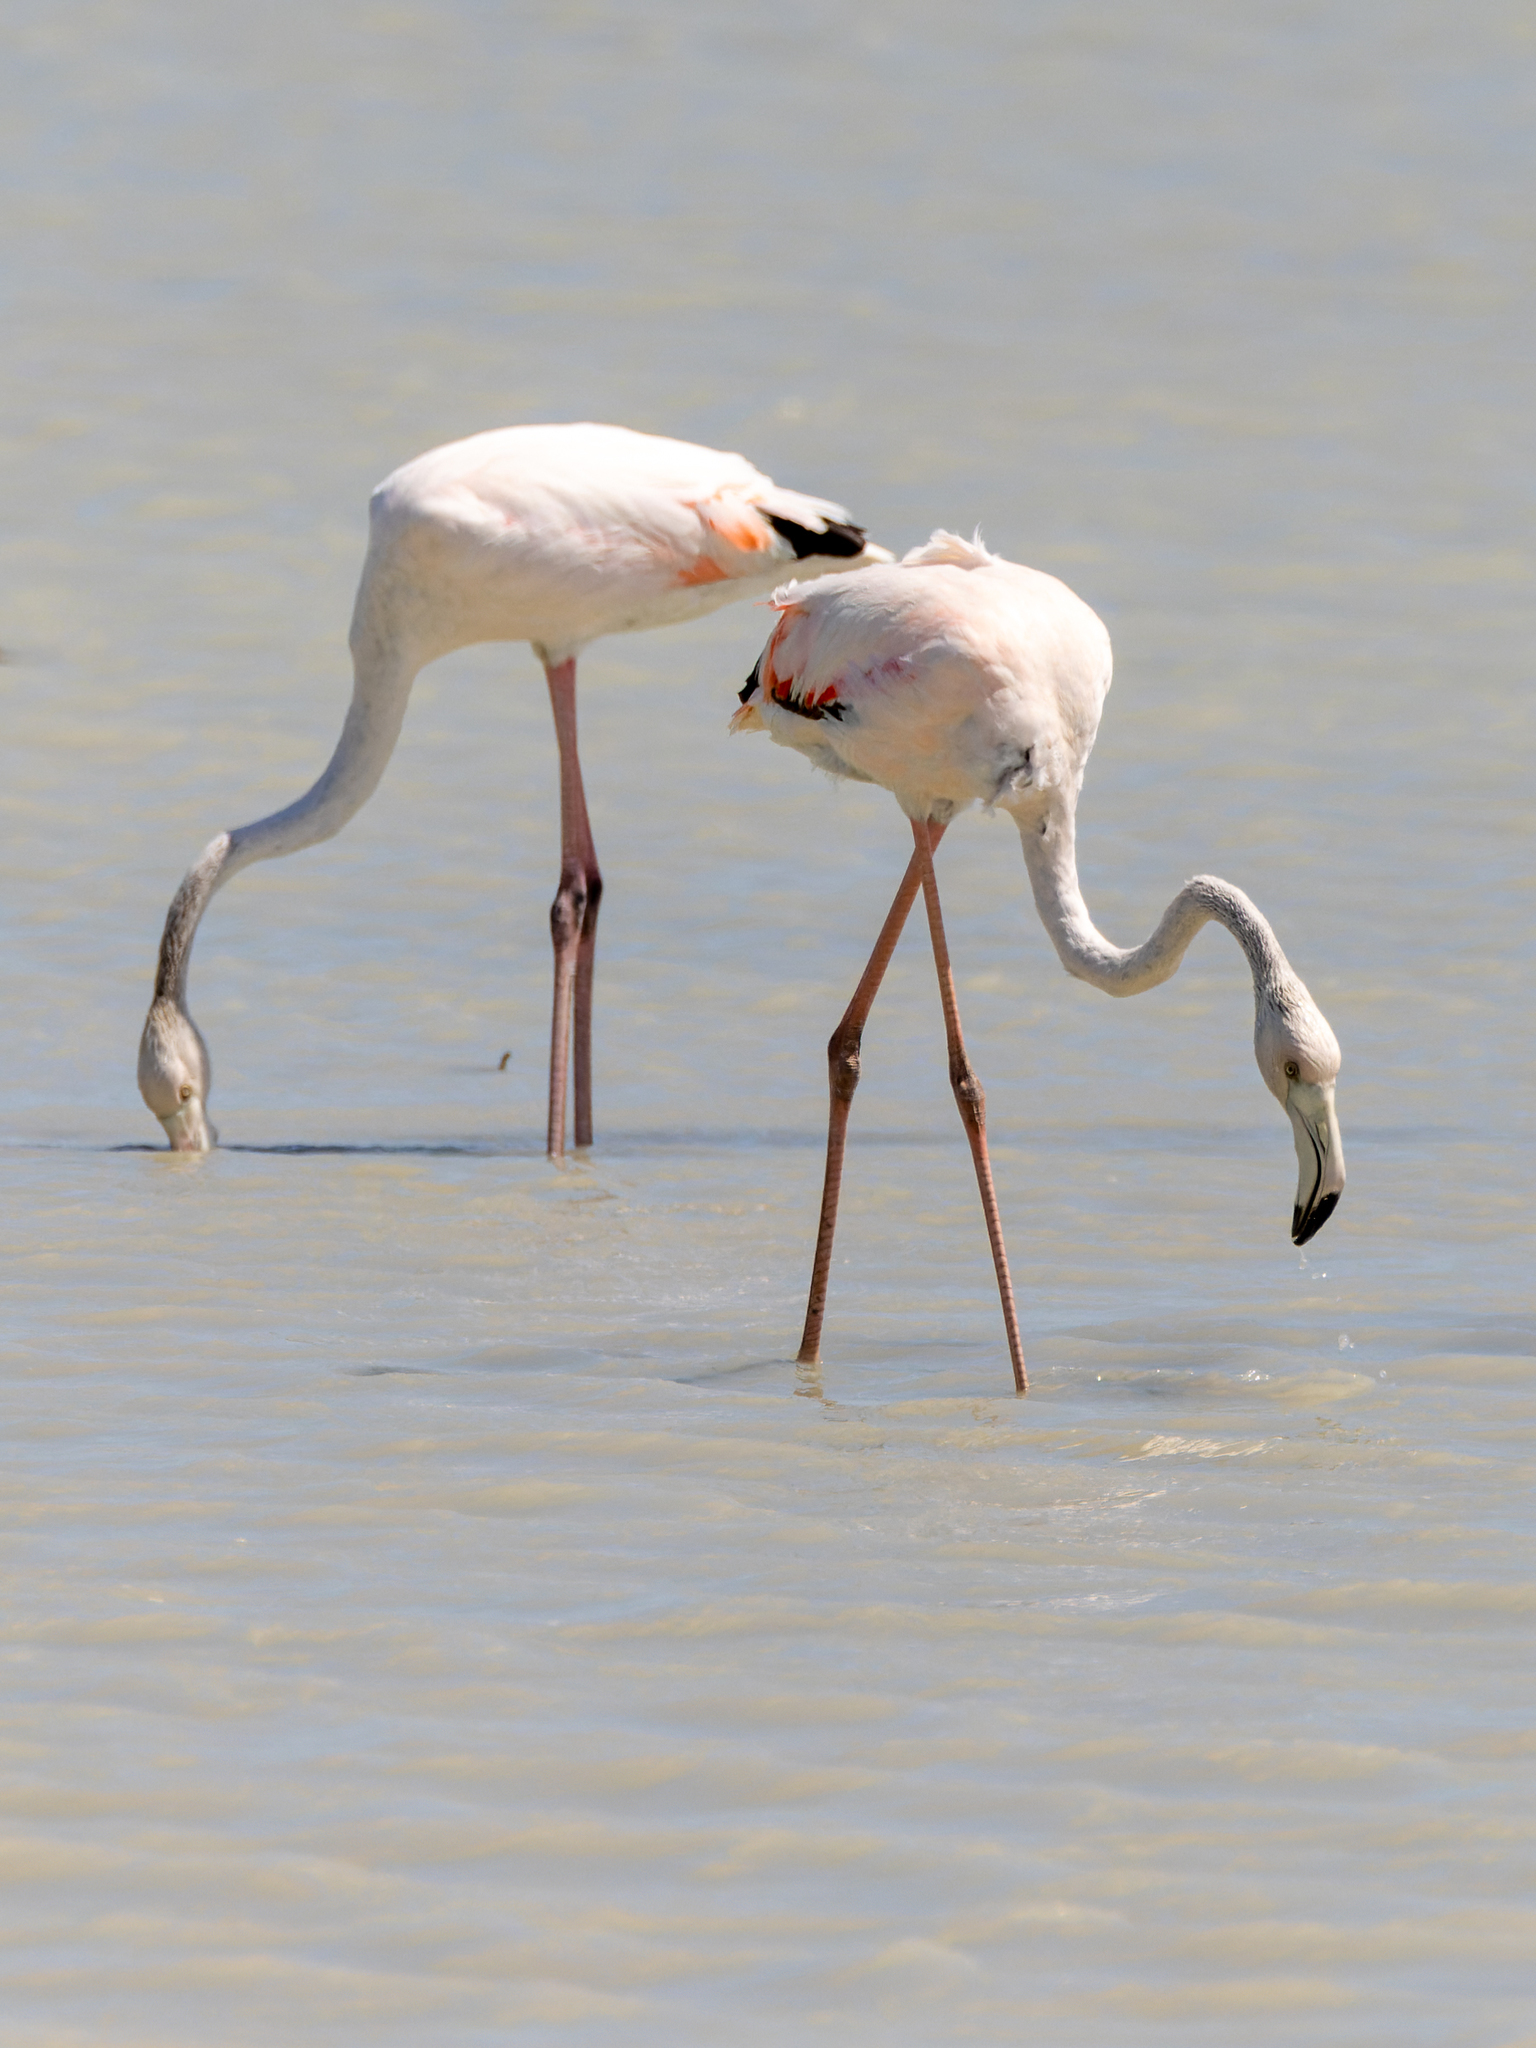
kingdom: Animalia
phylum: Chordata
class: Aves
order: Phoenicopteriformes
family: Phoenicopteridae
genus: Phoenicopterus
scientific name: Phoenicopterus roseus
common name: Greater flamingo
